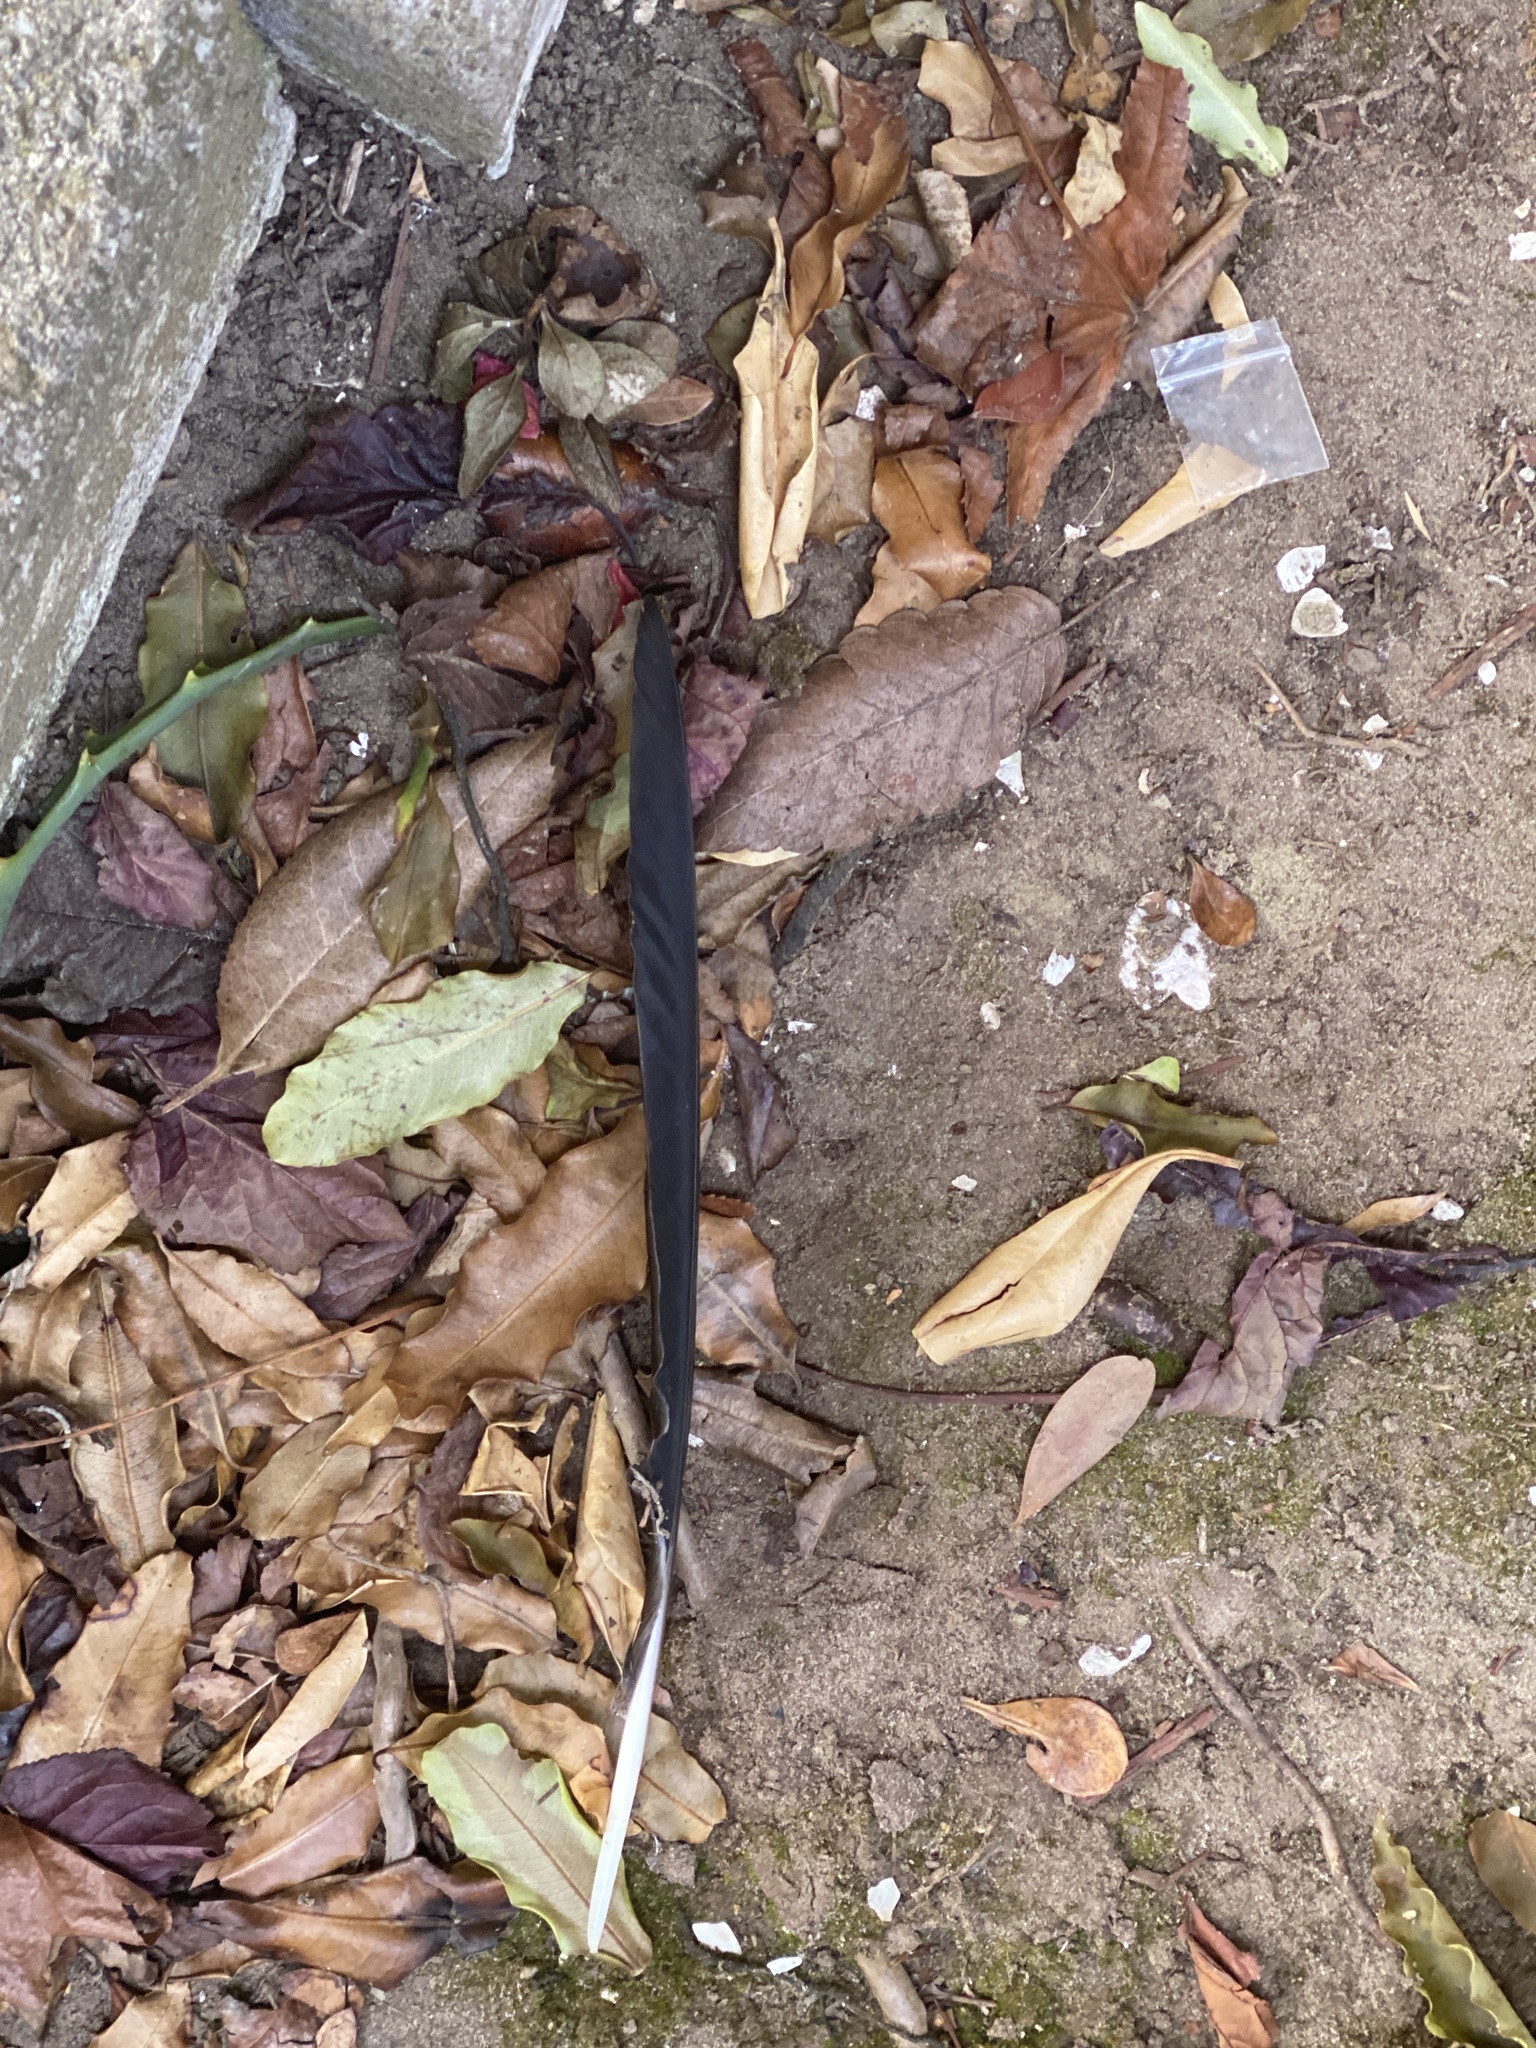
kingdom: Animalia
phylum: Chordata
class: Aves
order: Passeriformes
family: Corvidae
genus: Corvus
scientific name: Corvus brachyrhynchos
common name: American crow
